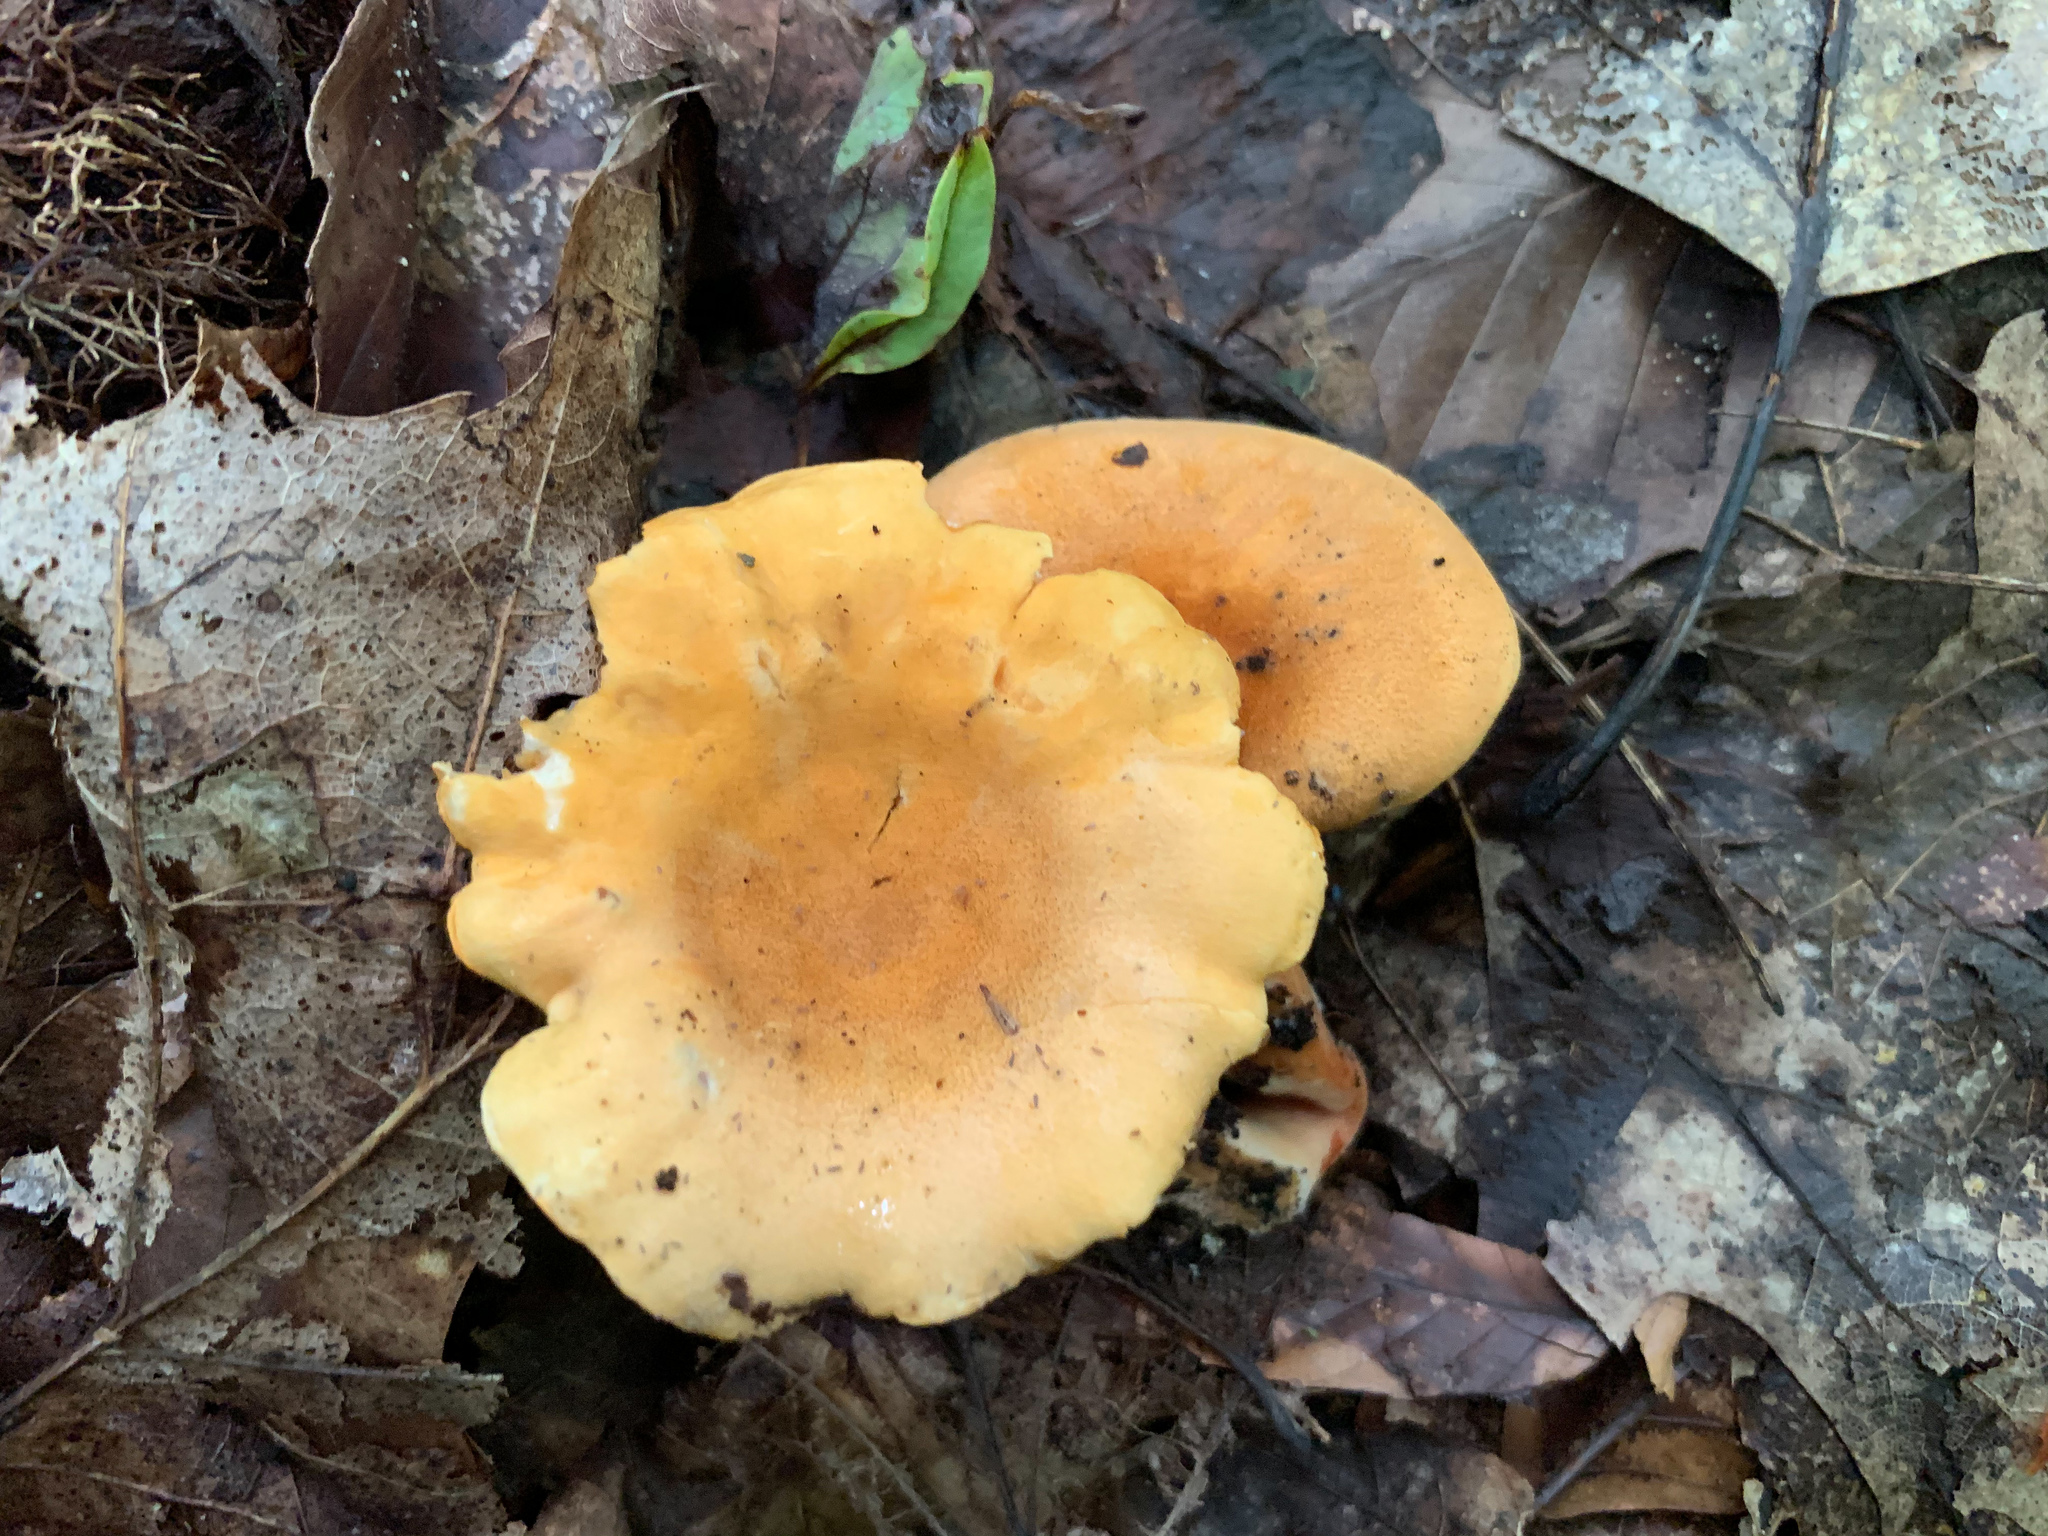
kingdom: Fungi
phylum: Basidiomycota
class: Agaricomycetes
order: Boletales
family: Hygrophoropsidaceae
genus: Hygrophoropsis
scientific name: Hygrophoropsis aurantiaca
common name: False chanterelle
